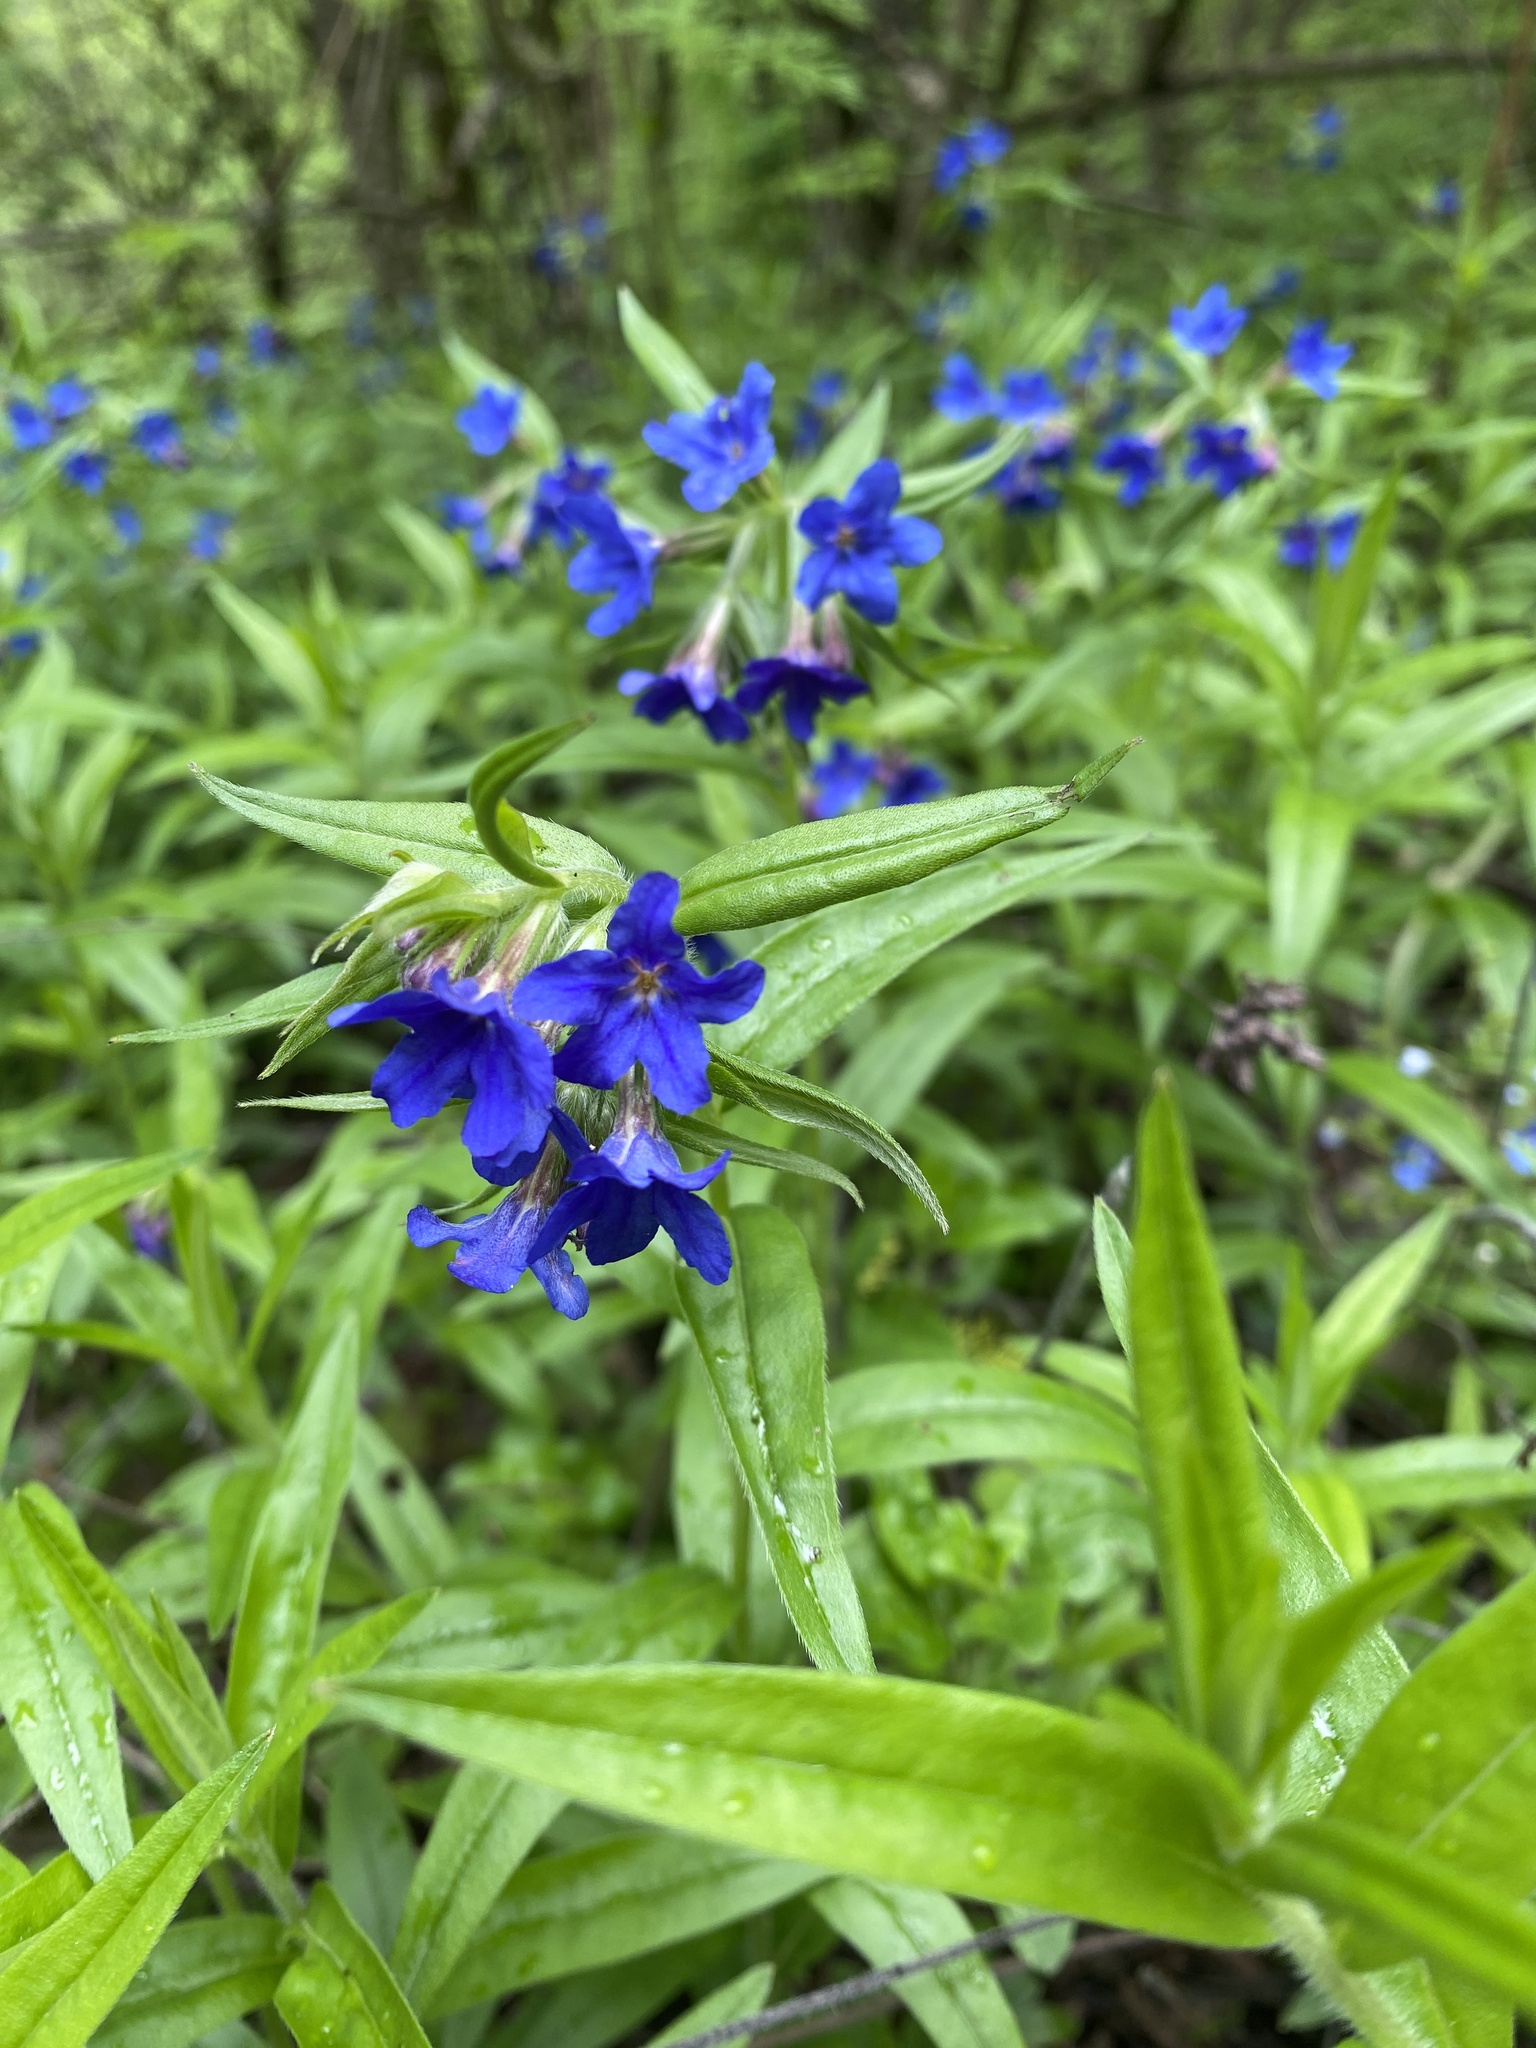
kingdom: Plantae
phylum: Tracheophyta
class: Magnoliopsida
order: Boraginales
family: Boraginaceae
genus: Aegonychon
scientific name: Aegonychon purpurocaeruleum
